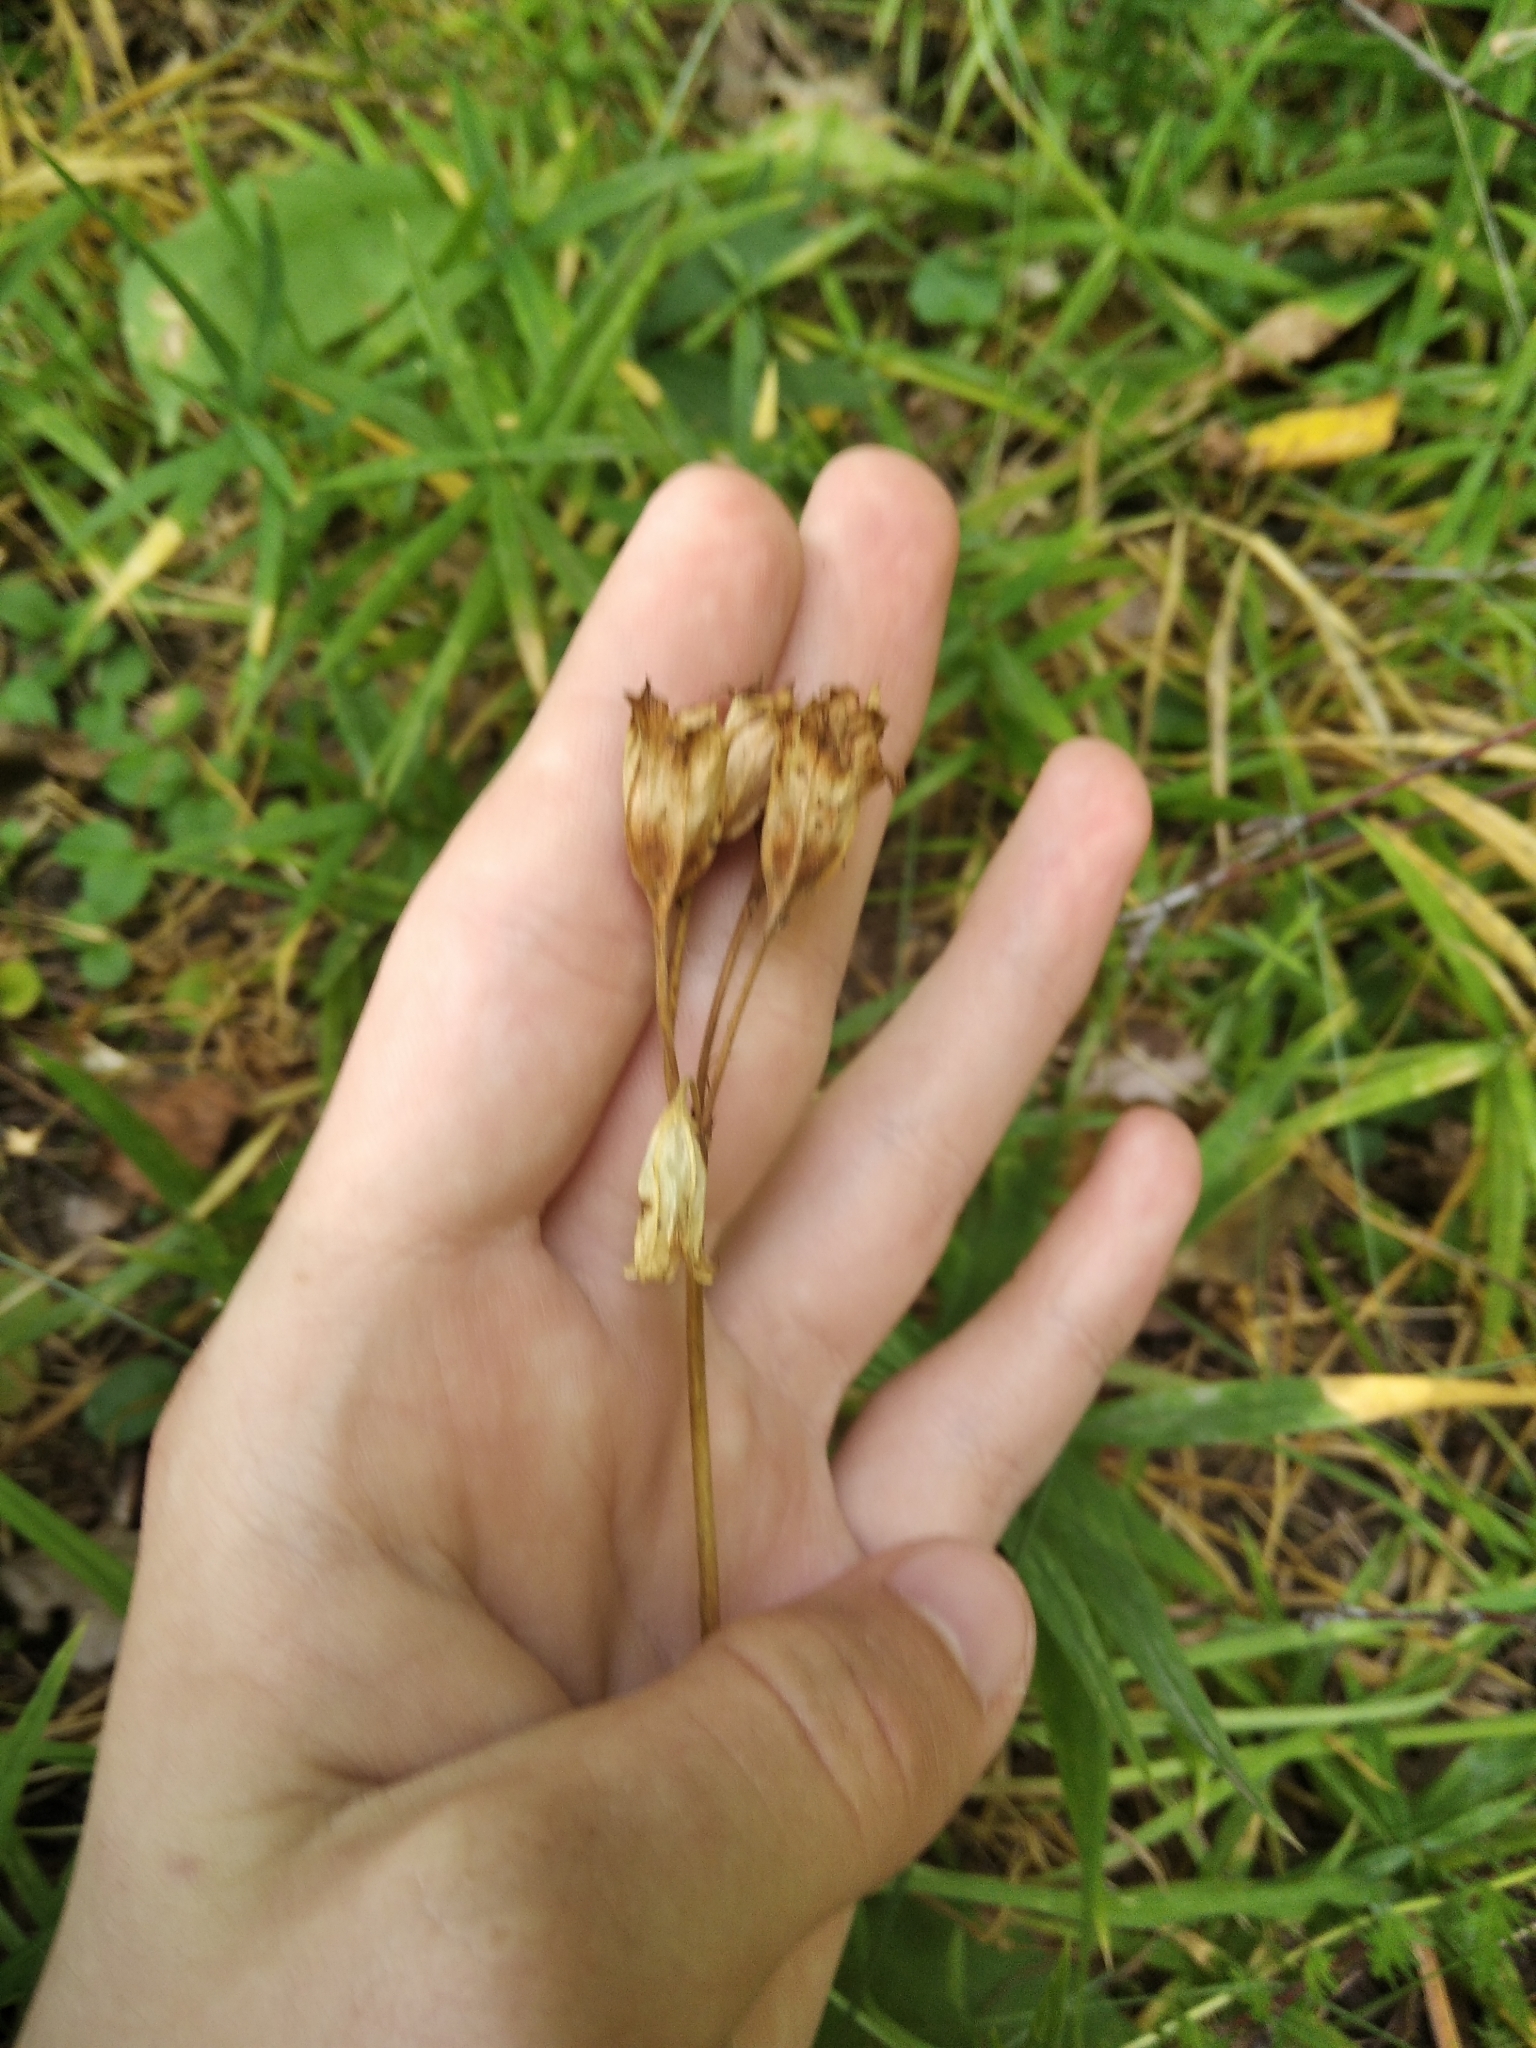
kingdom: Plantae
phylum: Tracheophyta
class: Magnoliopsida
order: Ericales
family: Primulaceae
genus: Primula
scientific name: Primula veris
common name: Cowslip
